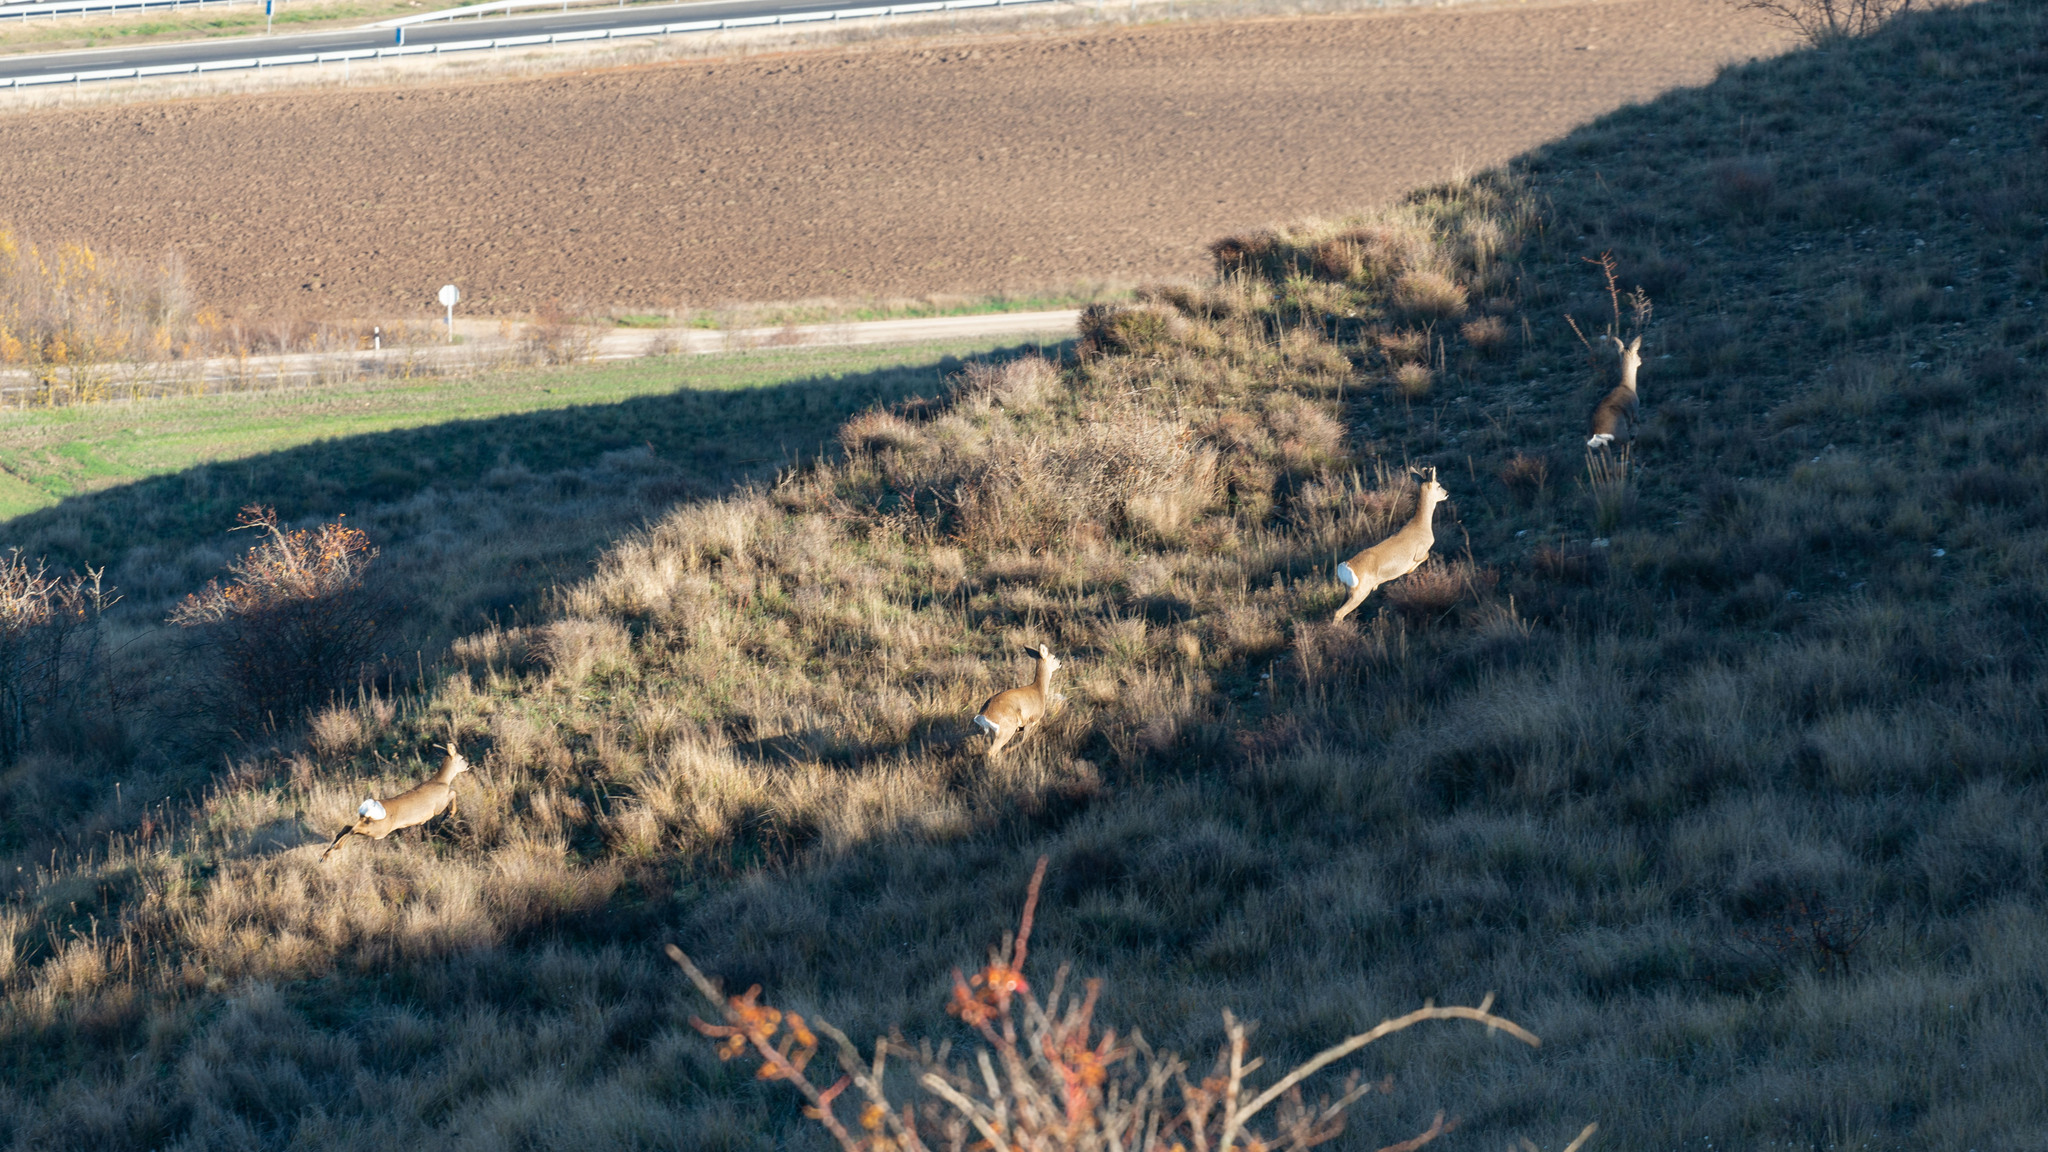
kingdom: Animalia
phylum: Chordata
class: Mammalia
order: Artiodactyla
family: Cervidae
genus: Capreolus
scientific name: Capreolus capreolus
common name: Western roe deer
